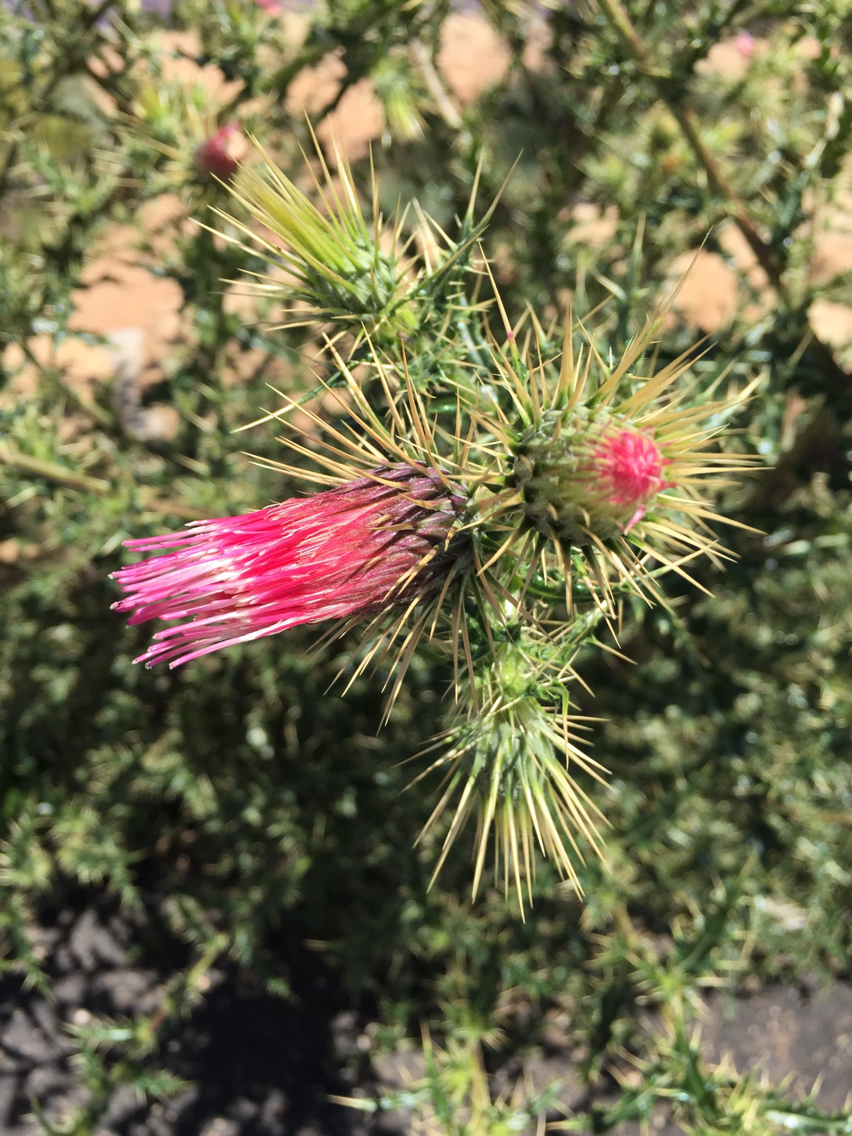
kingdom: Plantae
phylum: Tracheophyta
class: Magnoliopsida
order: Asterales
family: Asteraceae
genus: Cirsium
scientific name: Cirsium arizonicum
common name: Arizona thistle
